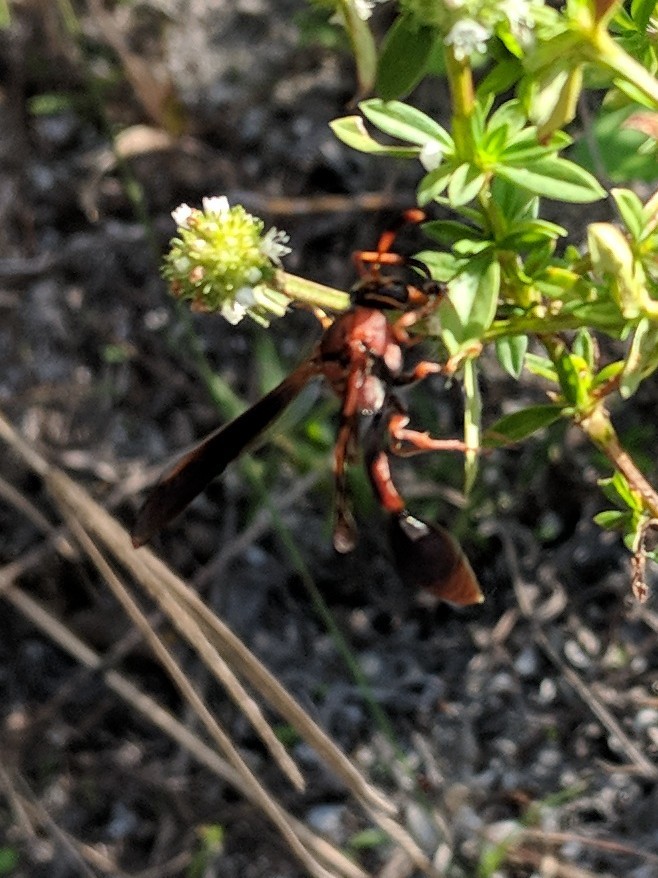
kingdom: Animalia
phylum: Arthropoda
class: Insecta
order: Hymenoptera
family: Eumenidae
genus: Zeta
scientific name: Zeta argillaceum
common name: Potter wasp
